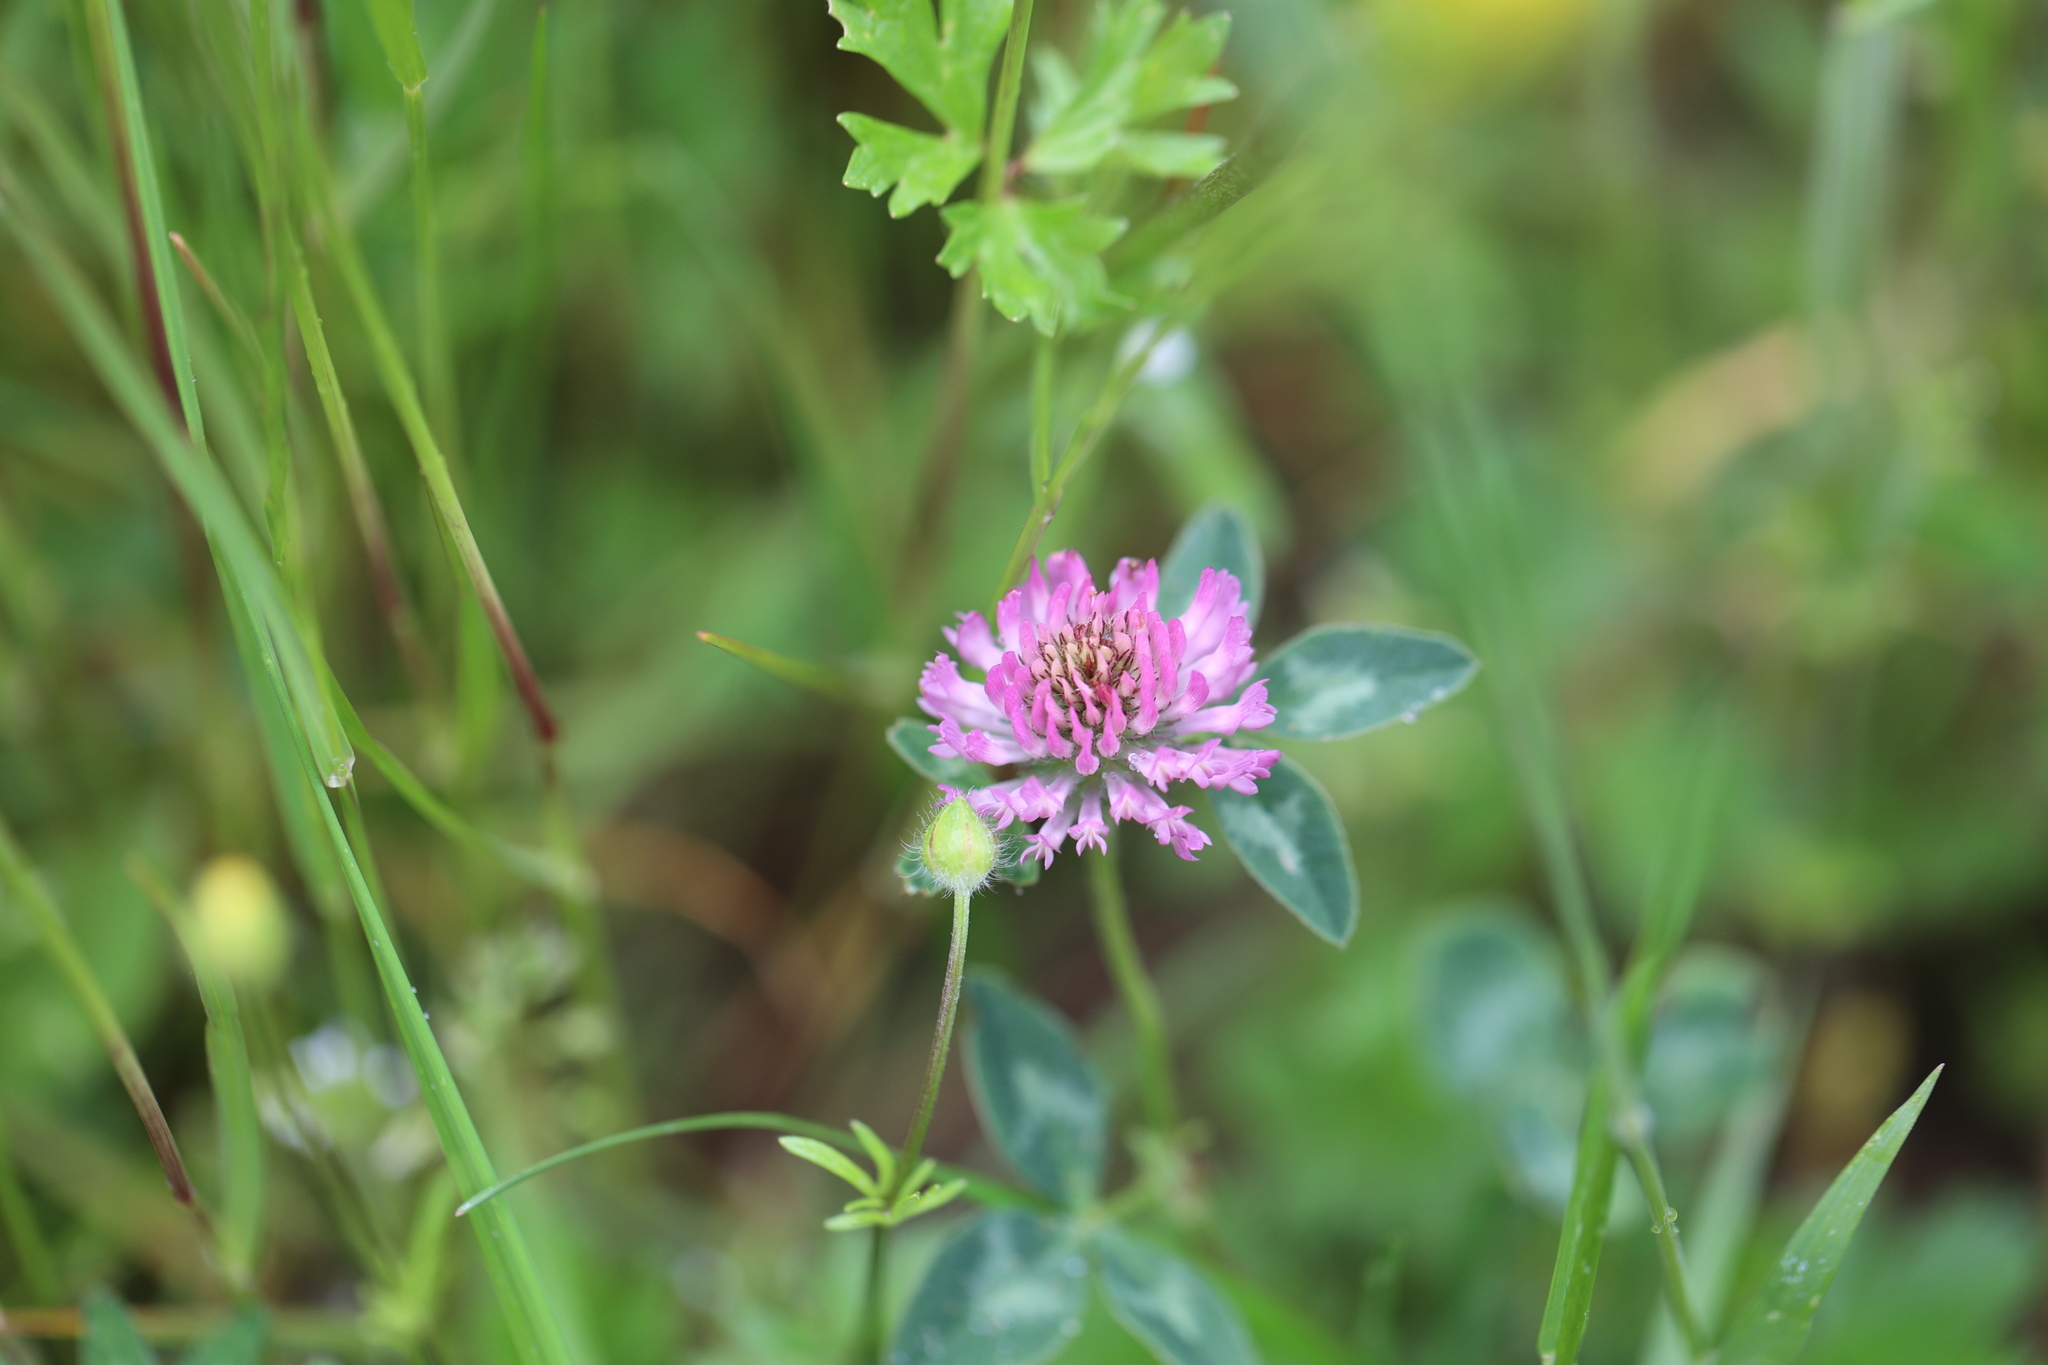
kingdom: Plantae
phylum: Tracheophyta
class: Magnoliopsida
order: Fabales
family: Fabaceae
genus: Trifolium
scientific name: Trifolium pratense
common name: Red clover
